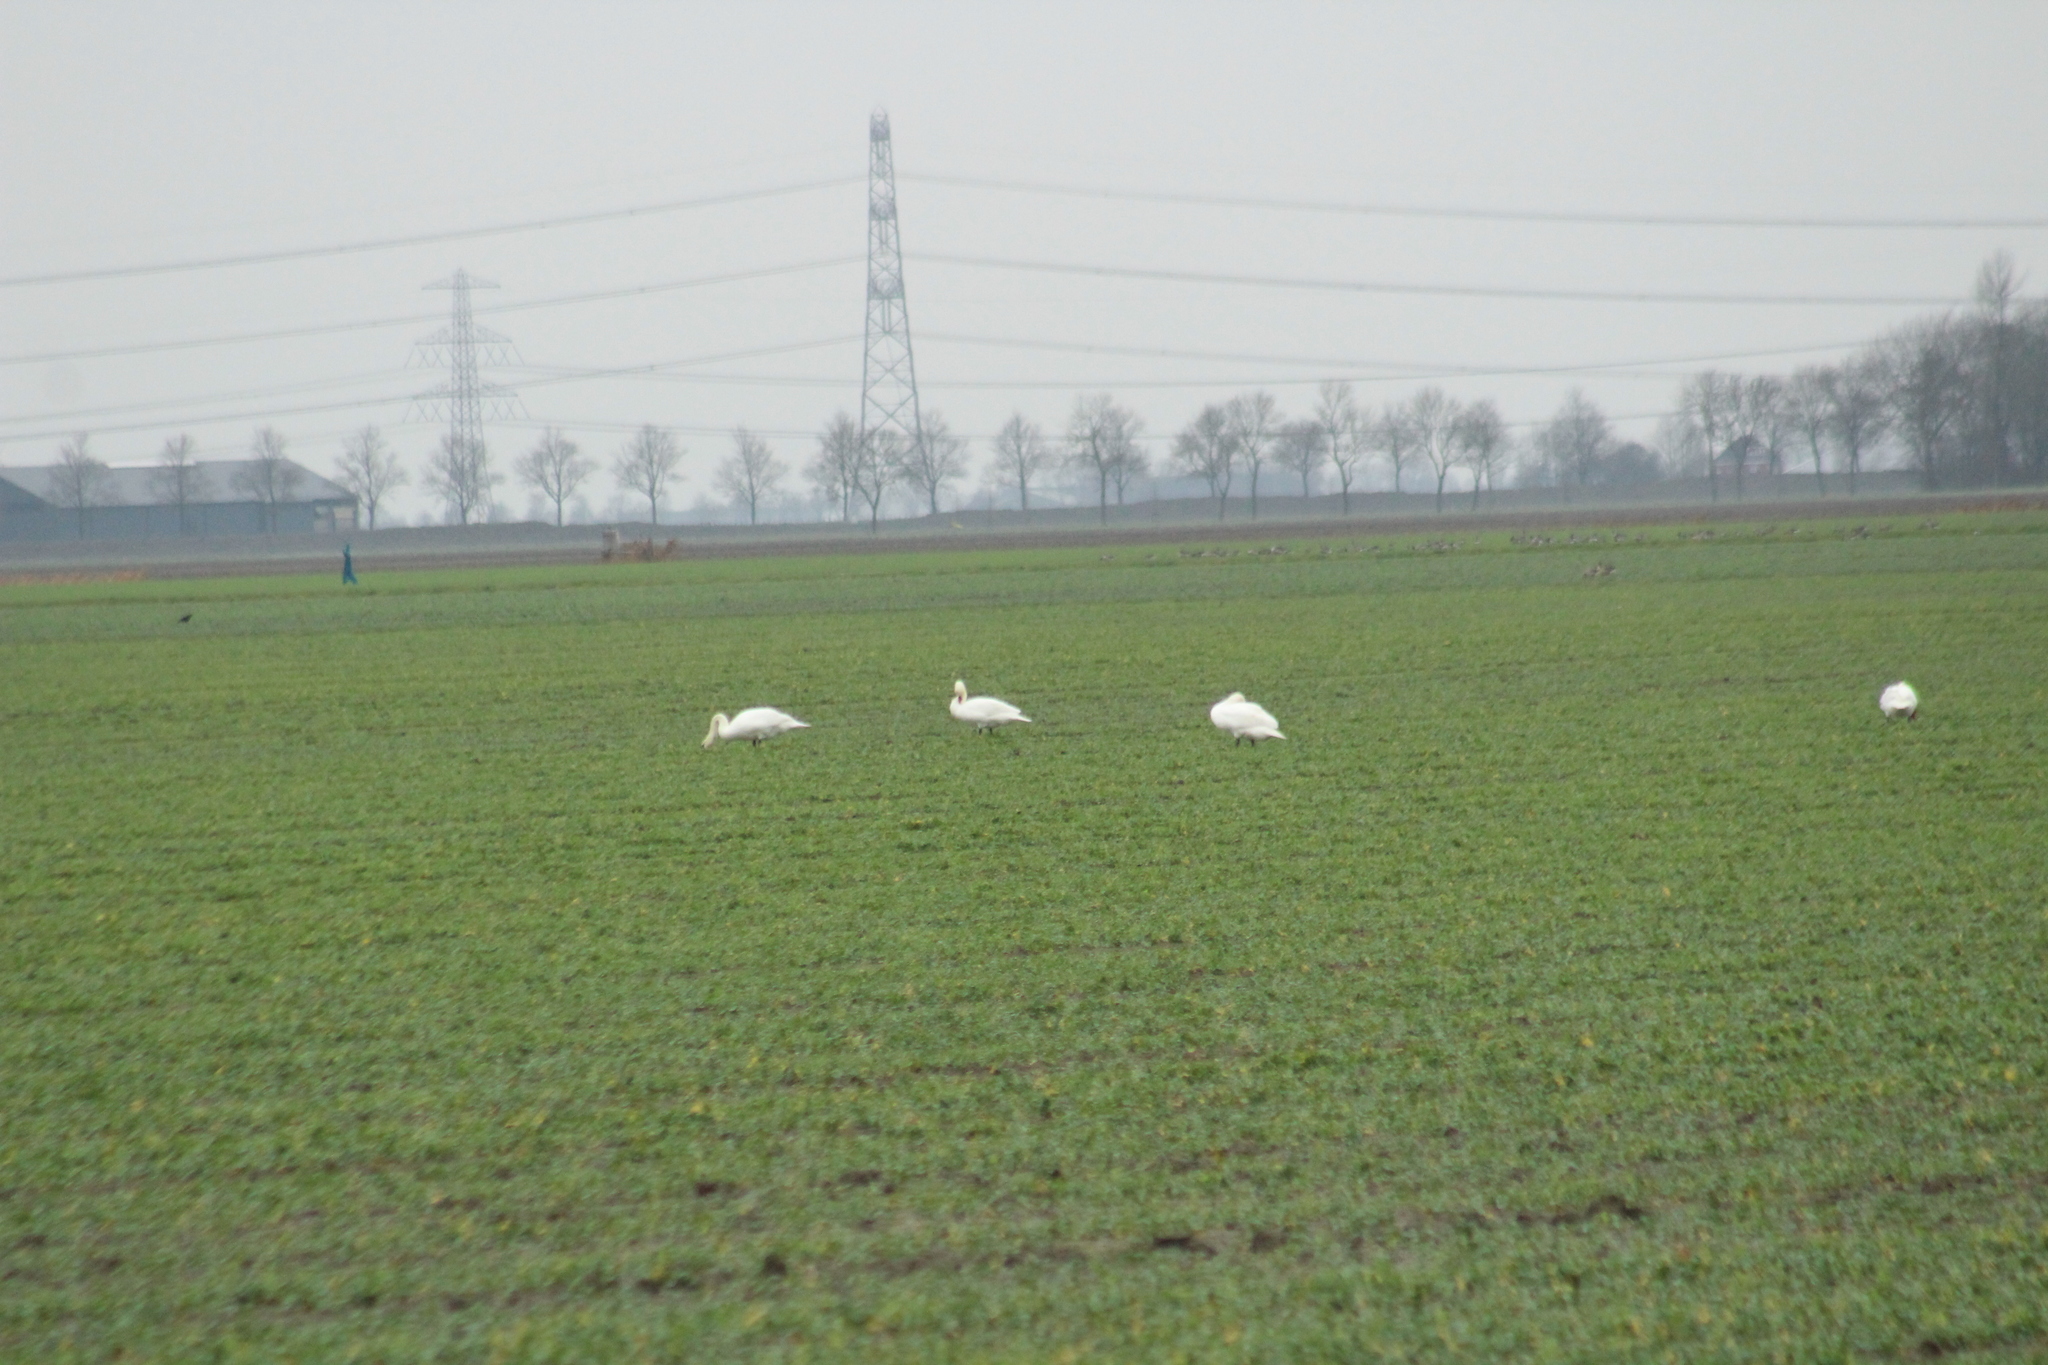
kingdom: Animalia
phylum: Chordata
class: Aves
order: Anseriformes
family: Anatidae
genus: Cygnus
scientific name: Cygnus olor
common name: Mute swan
